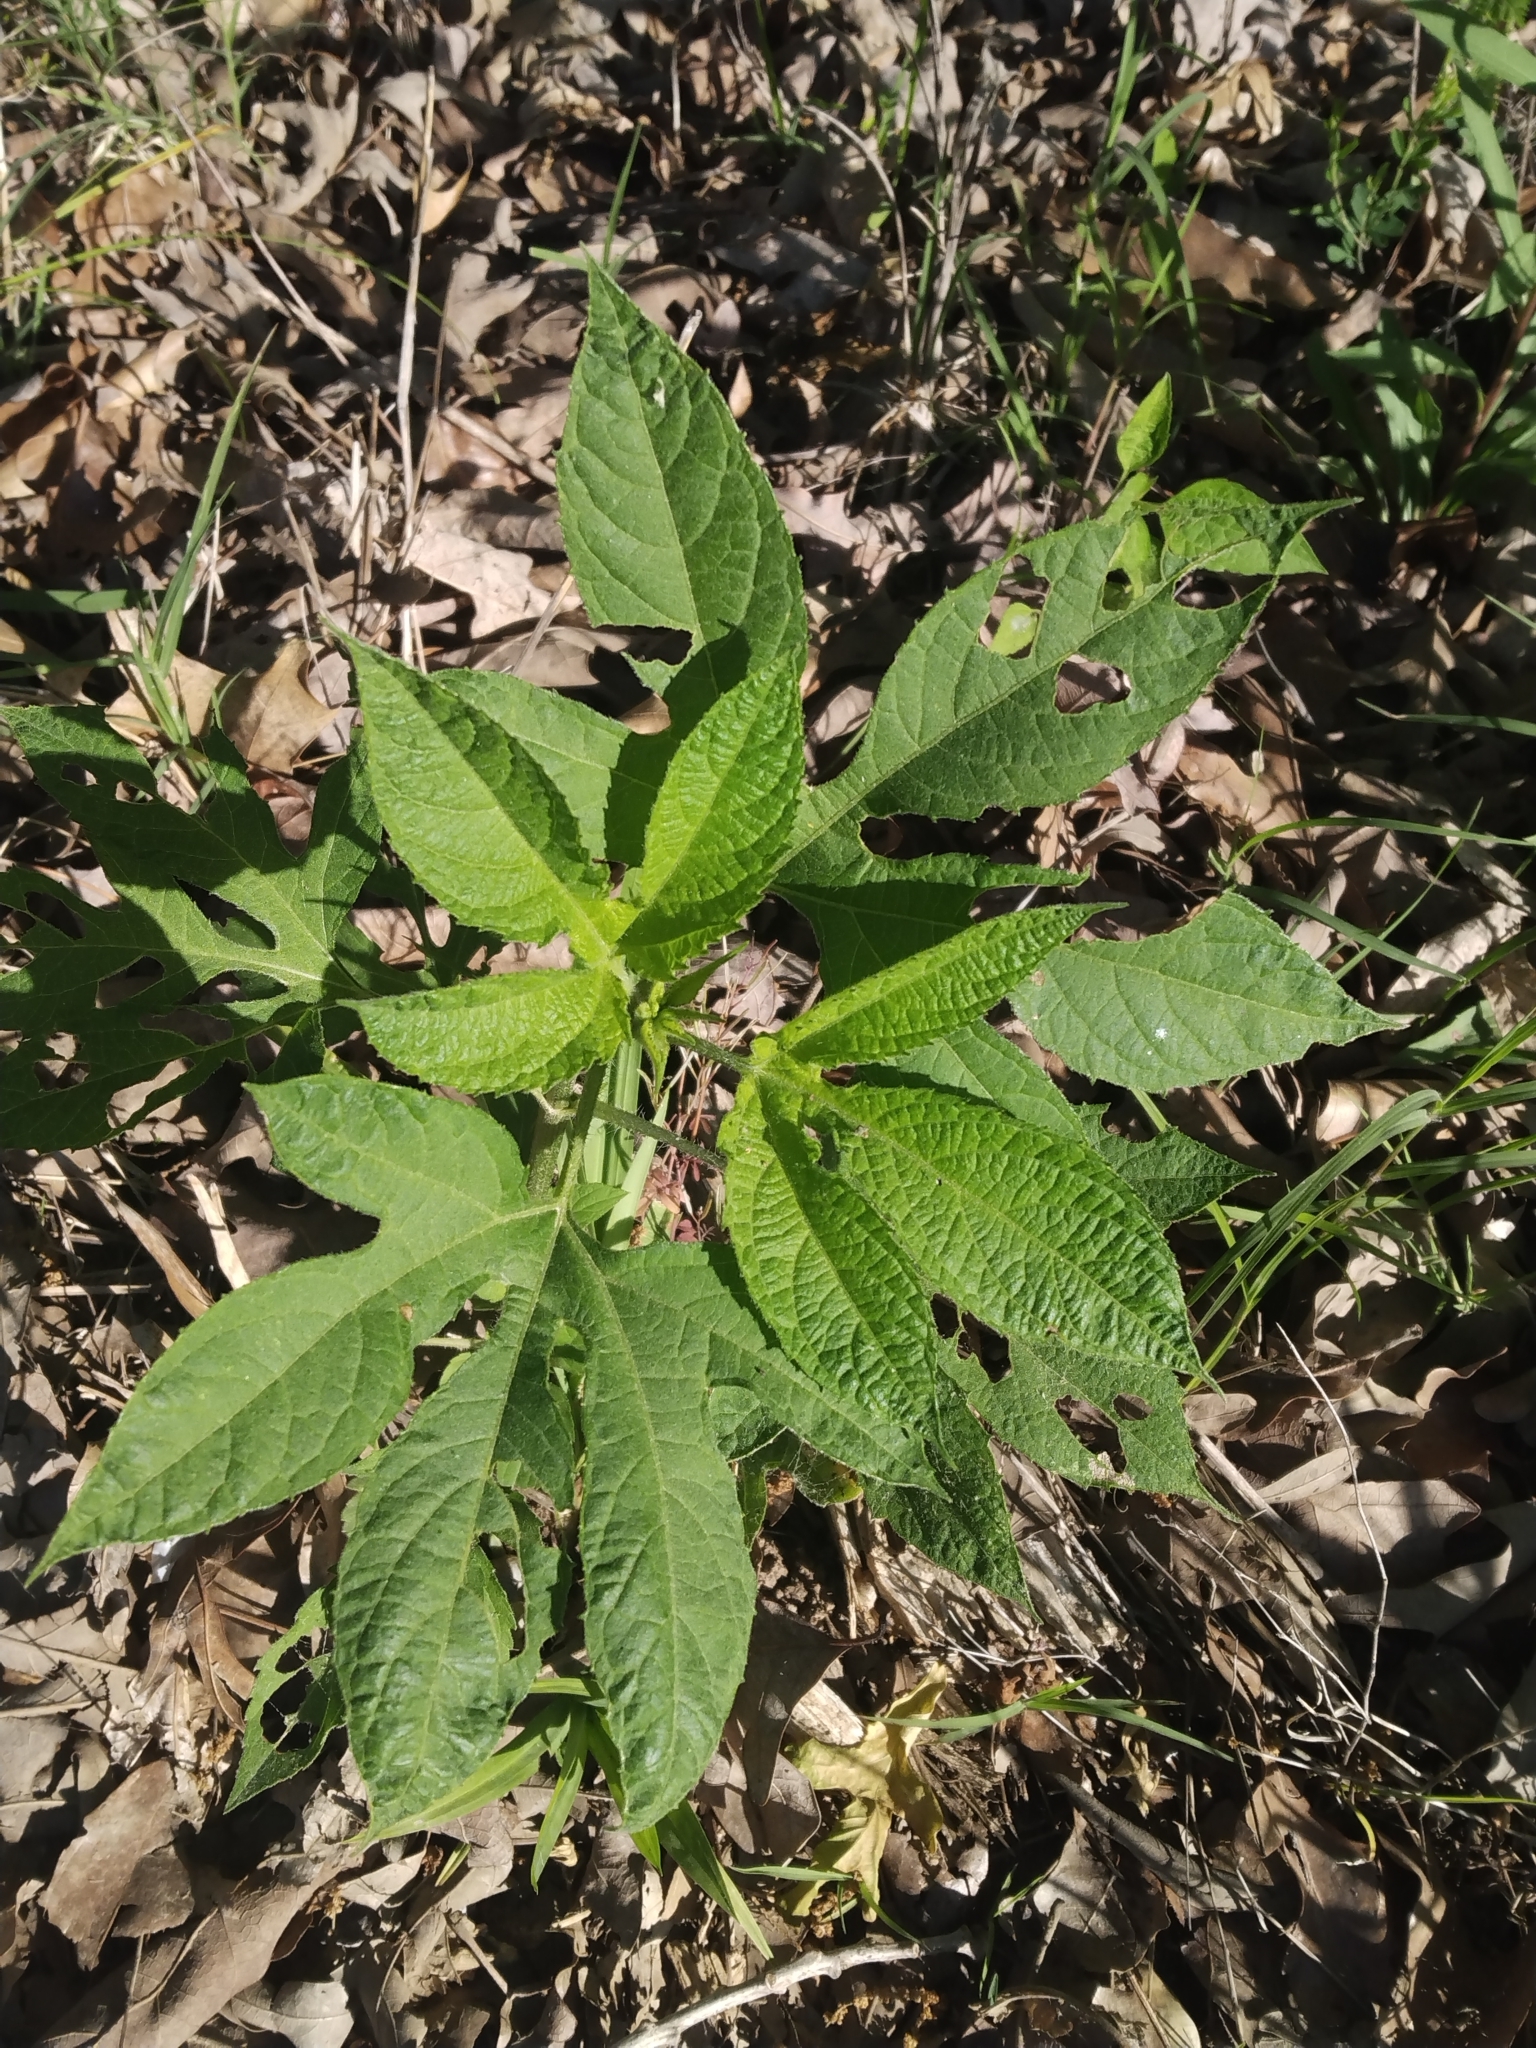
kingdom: Plantae
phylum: Tracheophyta
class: Magnoliopsida
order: Asterales
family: Asteraceae
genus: Ambrosia
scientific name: Ambrosia trifida
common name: Giant ragweed
